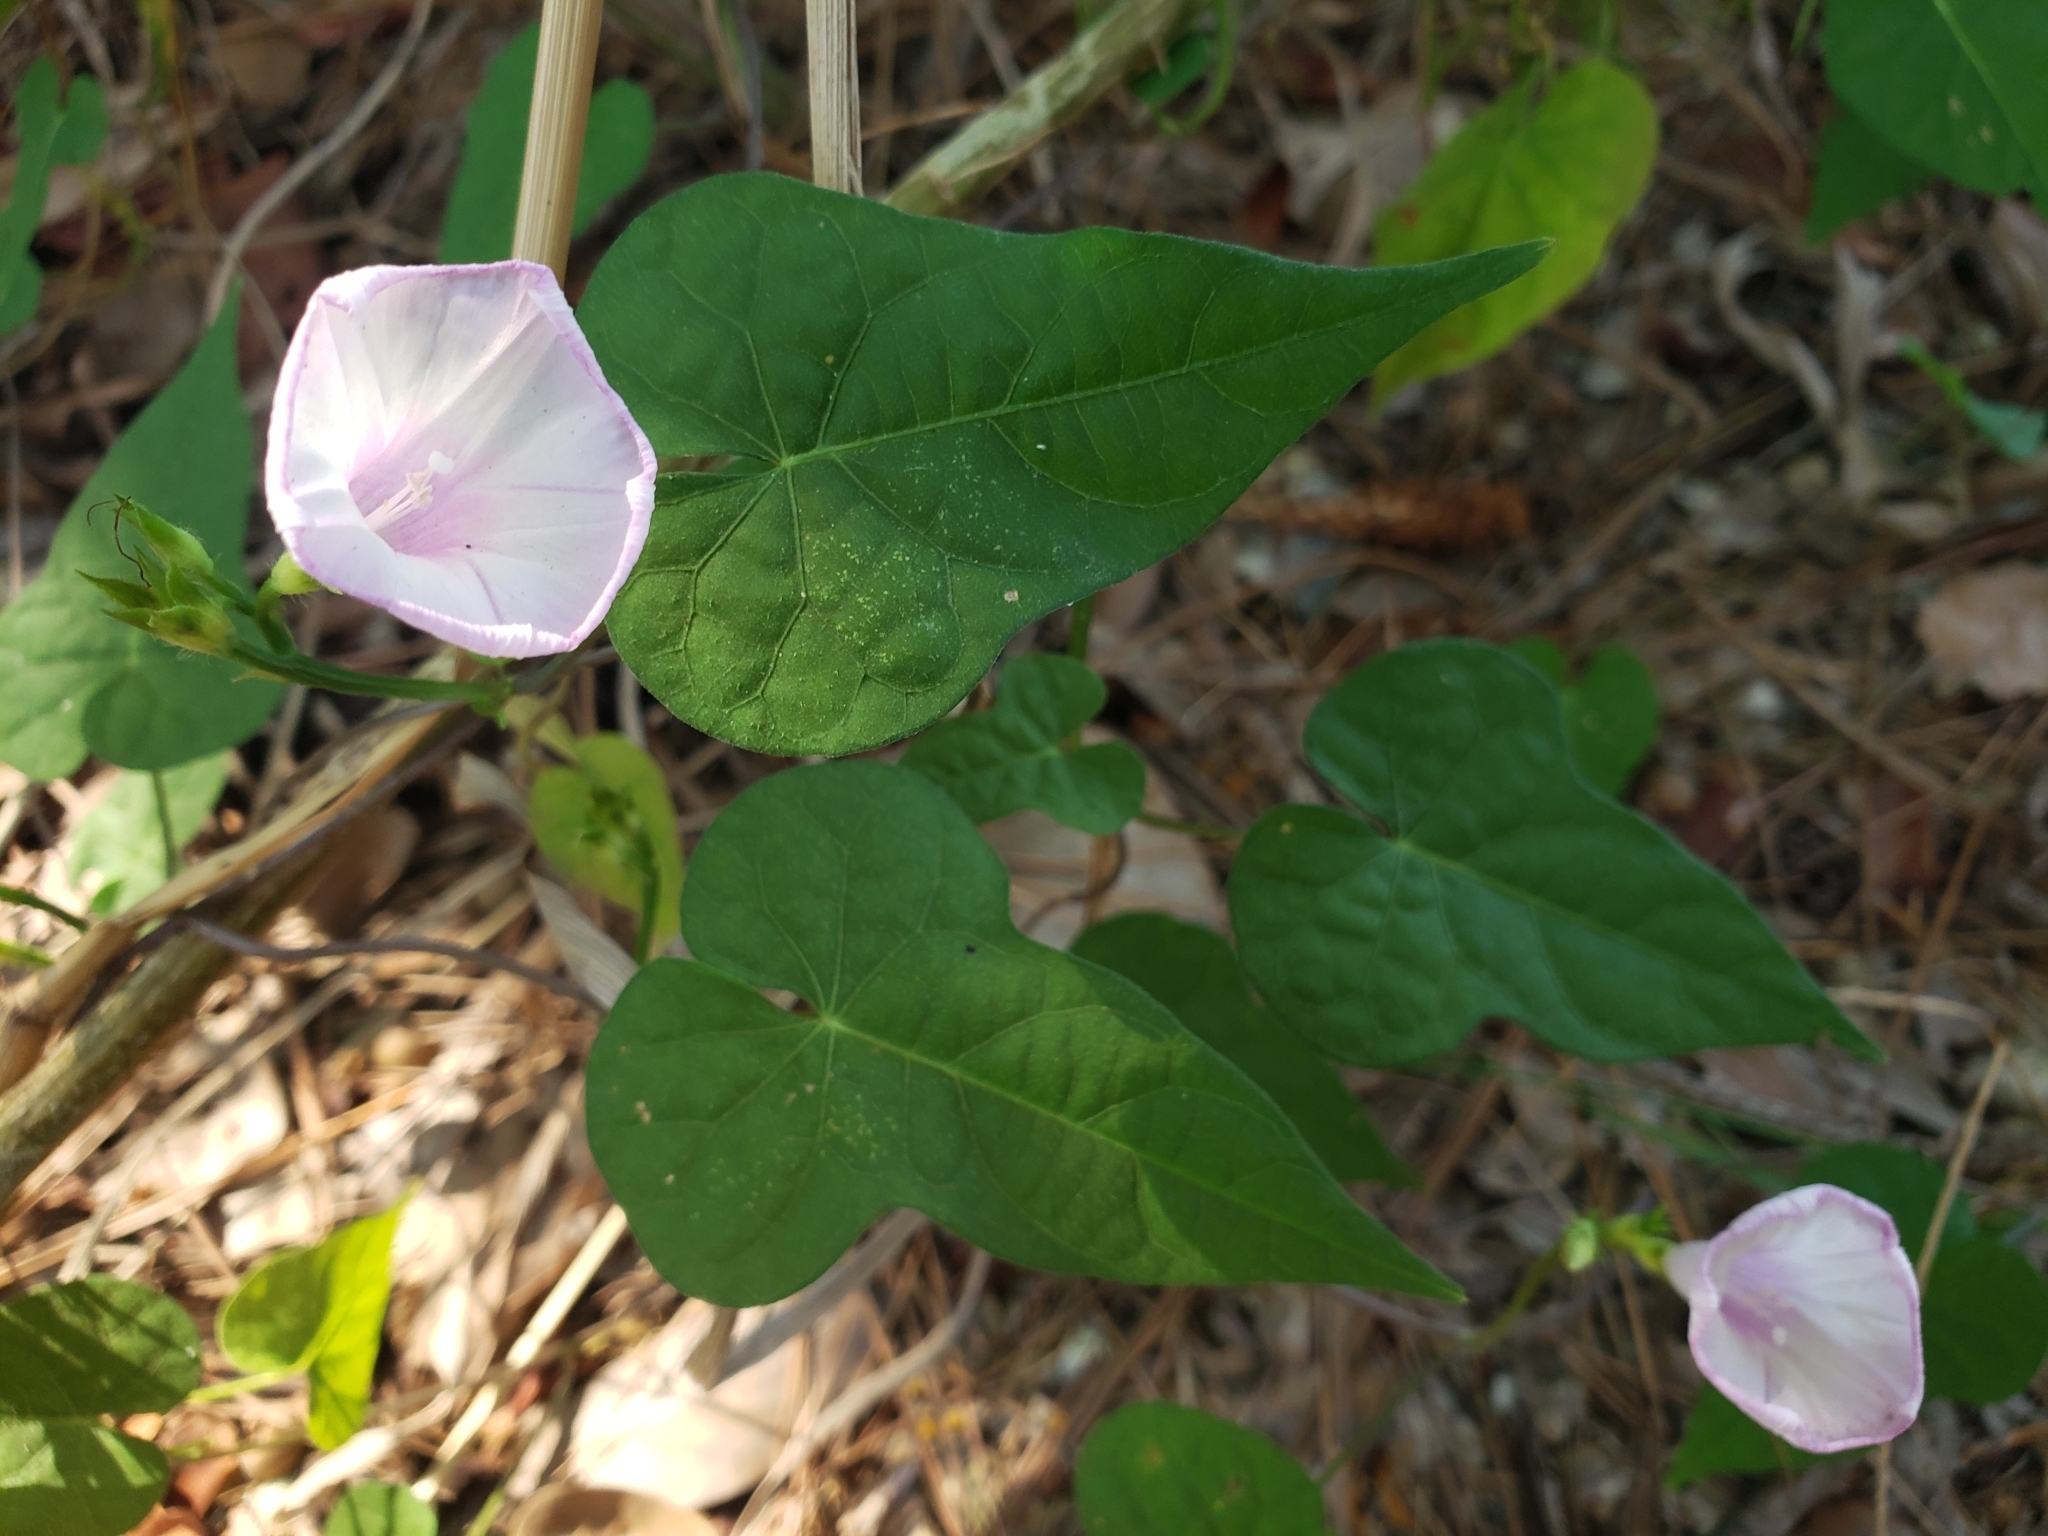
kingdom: Plantae
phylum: Tracheophyta
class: Magnoliopsida
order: Solanales
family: Convolvulaceae
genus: Ipomoea
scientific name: Ipomoea cordatotriloba
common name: Cotton morning glory
